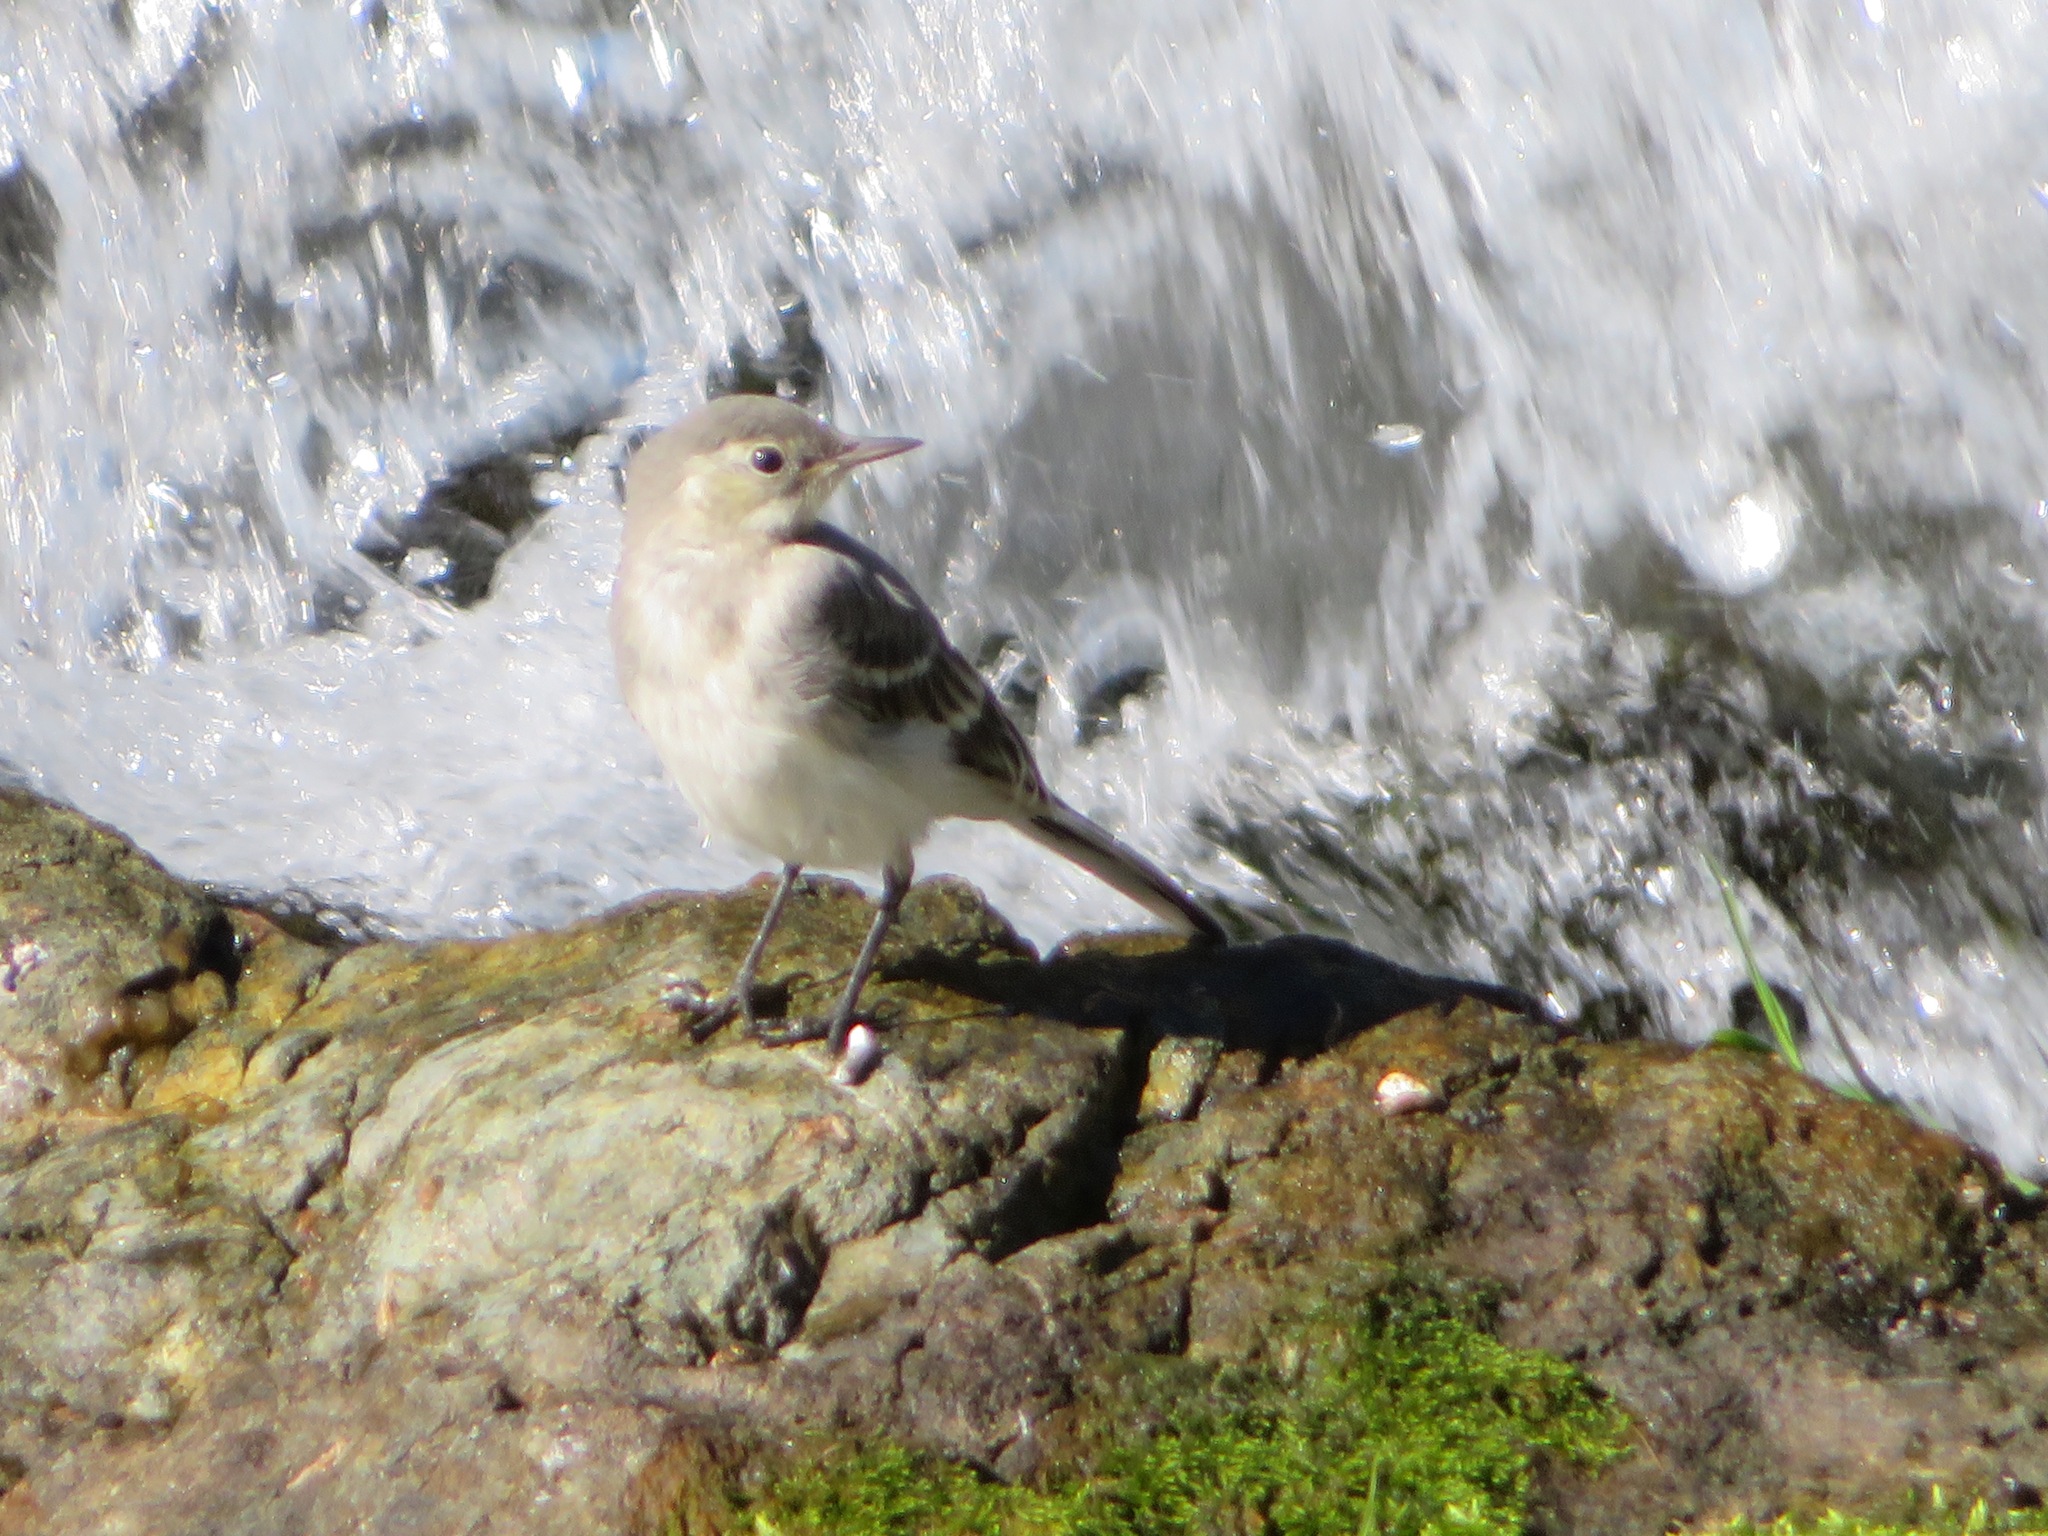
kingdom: Animalia
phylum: Chordata
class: Aves
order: Passeriformes
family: Motacillidae
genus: Motacilla
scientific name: Motacilla alba
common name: White wagtail
